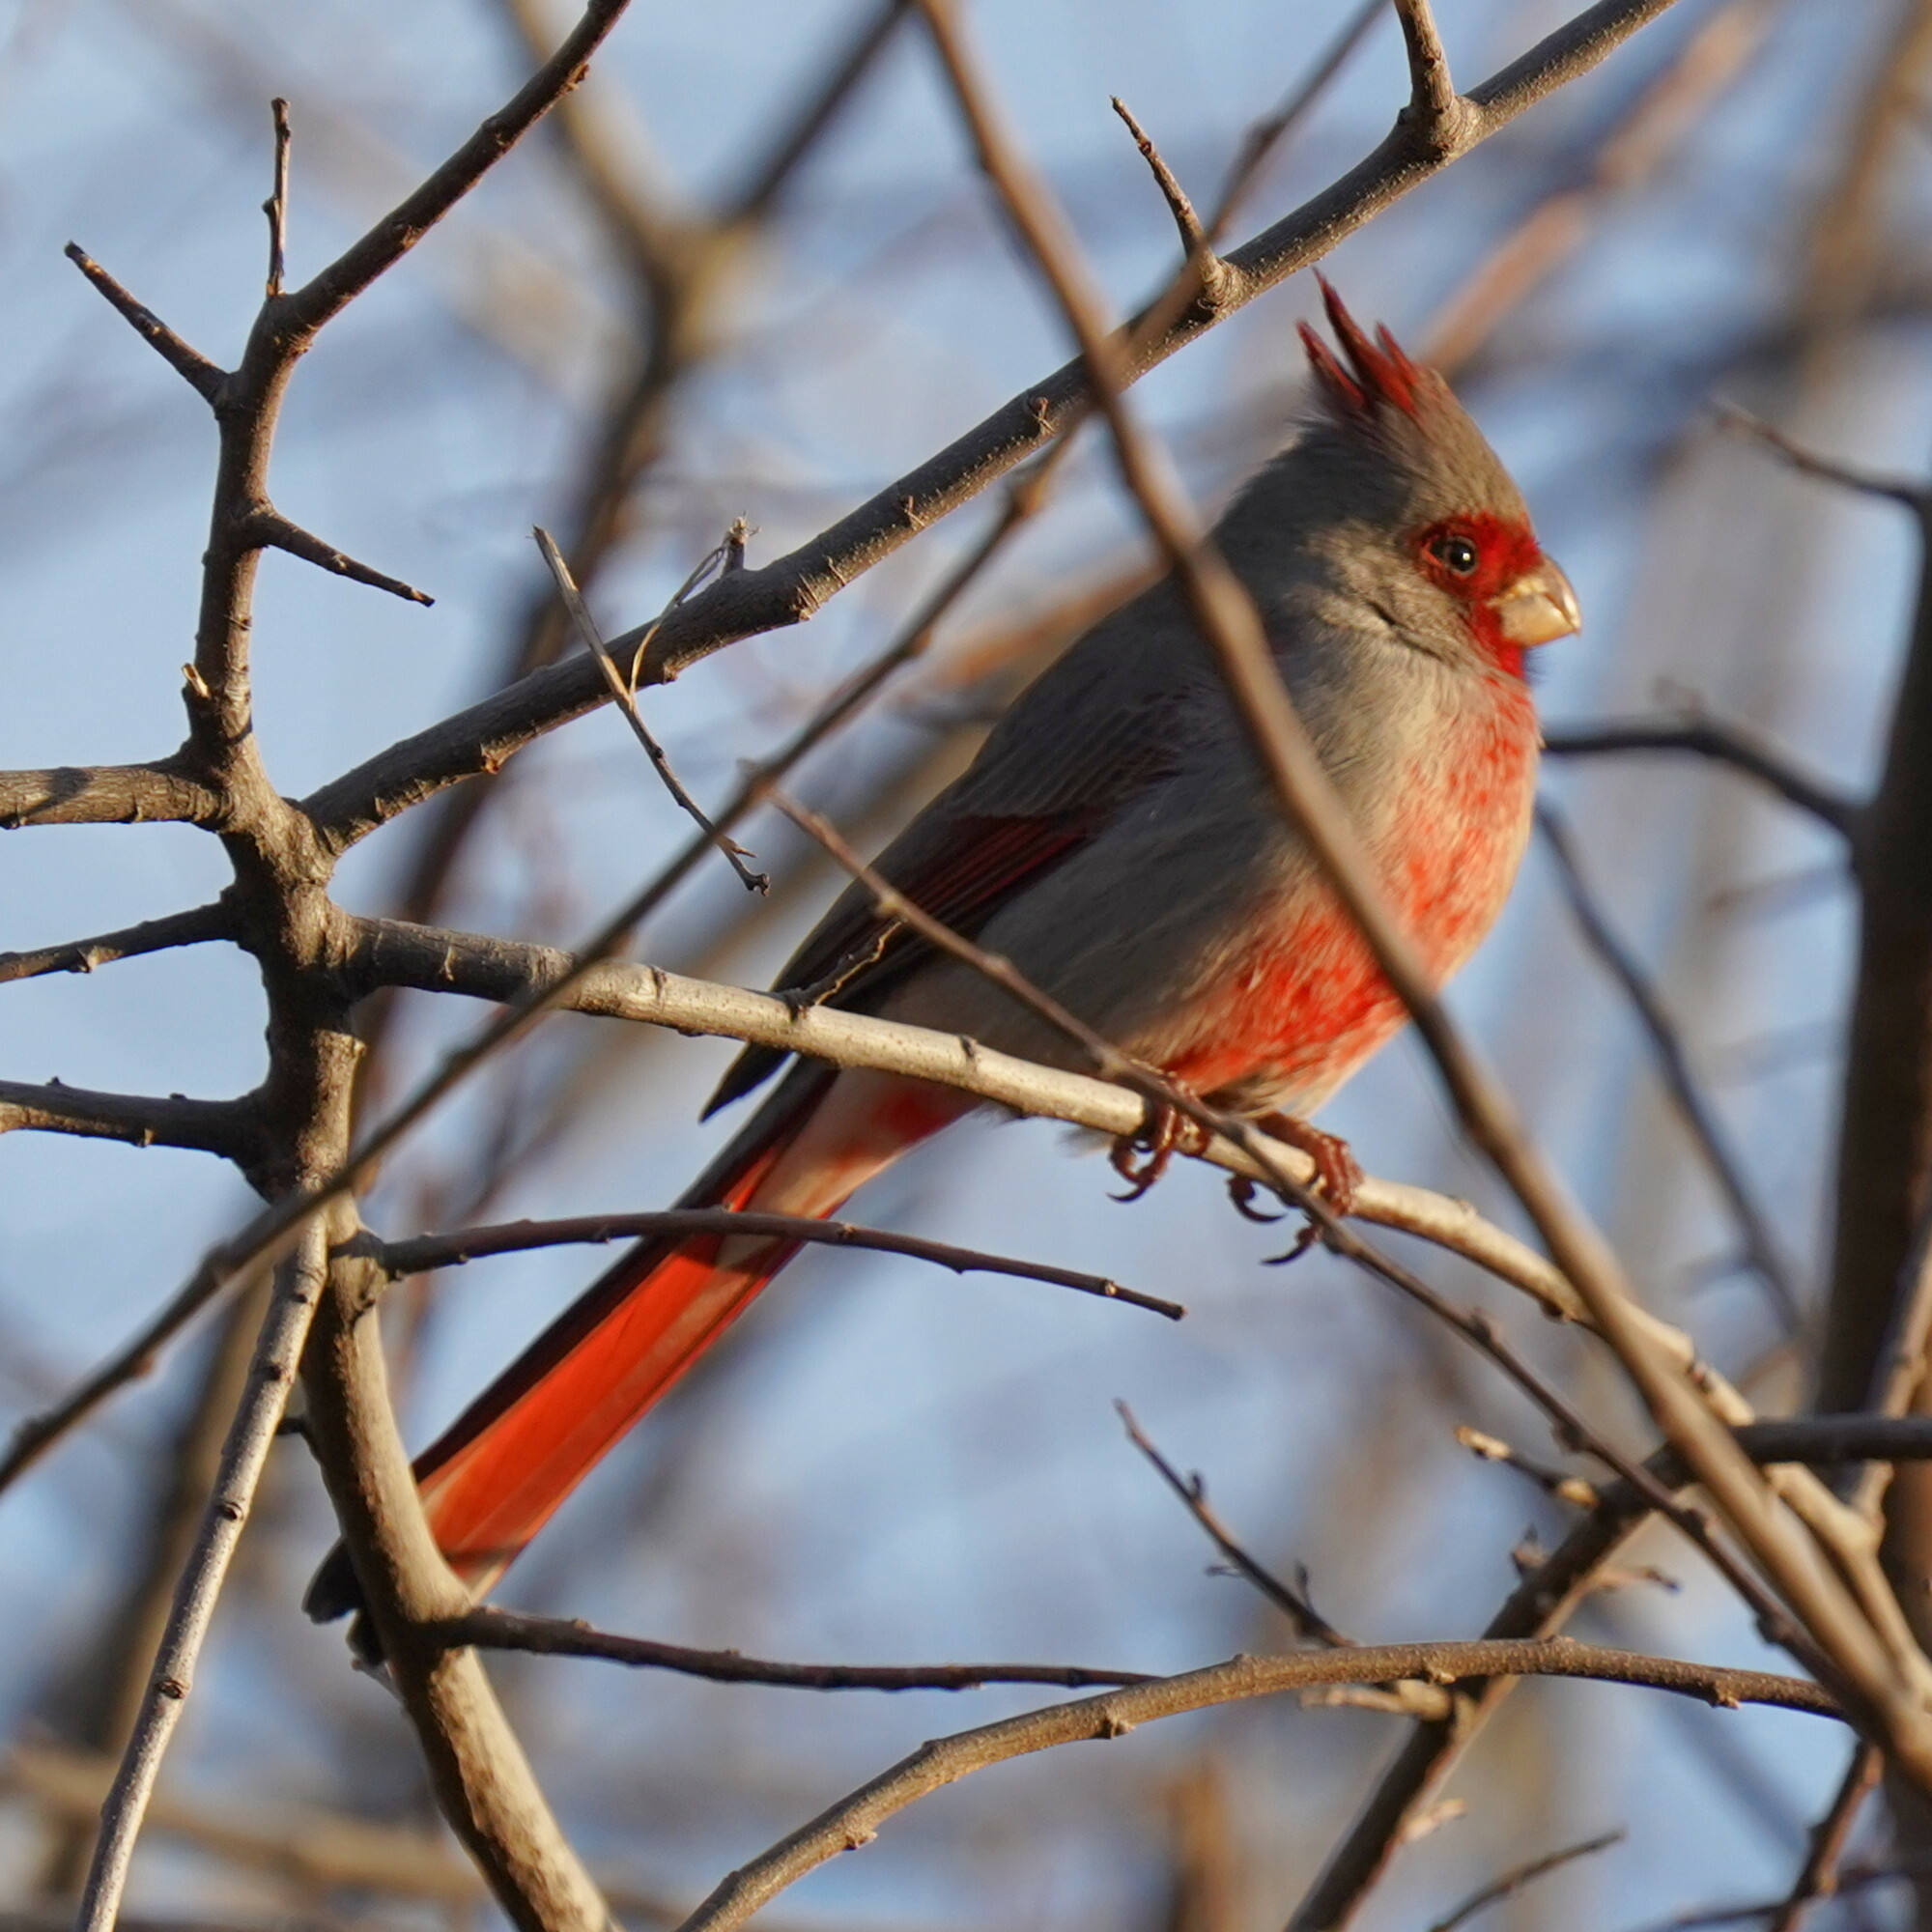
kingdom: Animalia
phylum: Chordata
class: Aves
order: Passeriformes
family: Cardinalidae
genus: Cardinalis
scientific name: Cardinalis sinuatus
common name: Pyrrhuloxia
